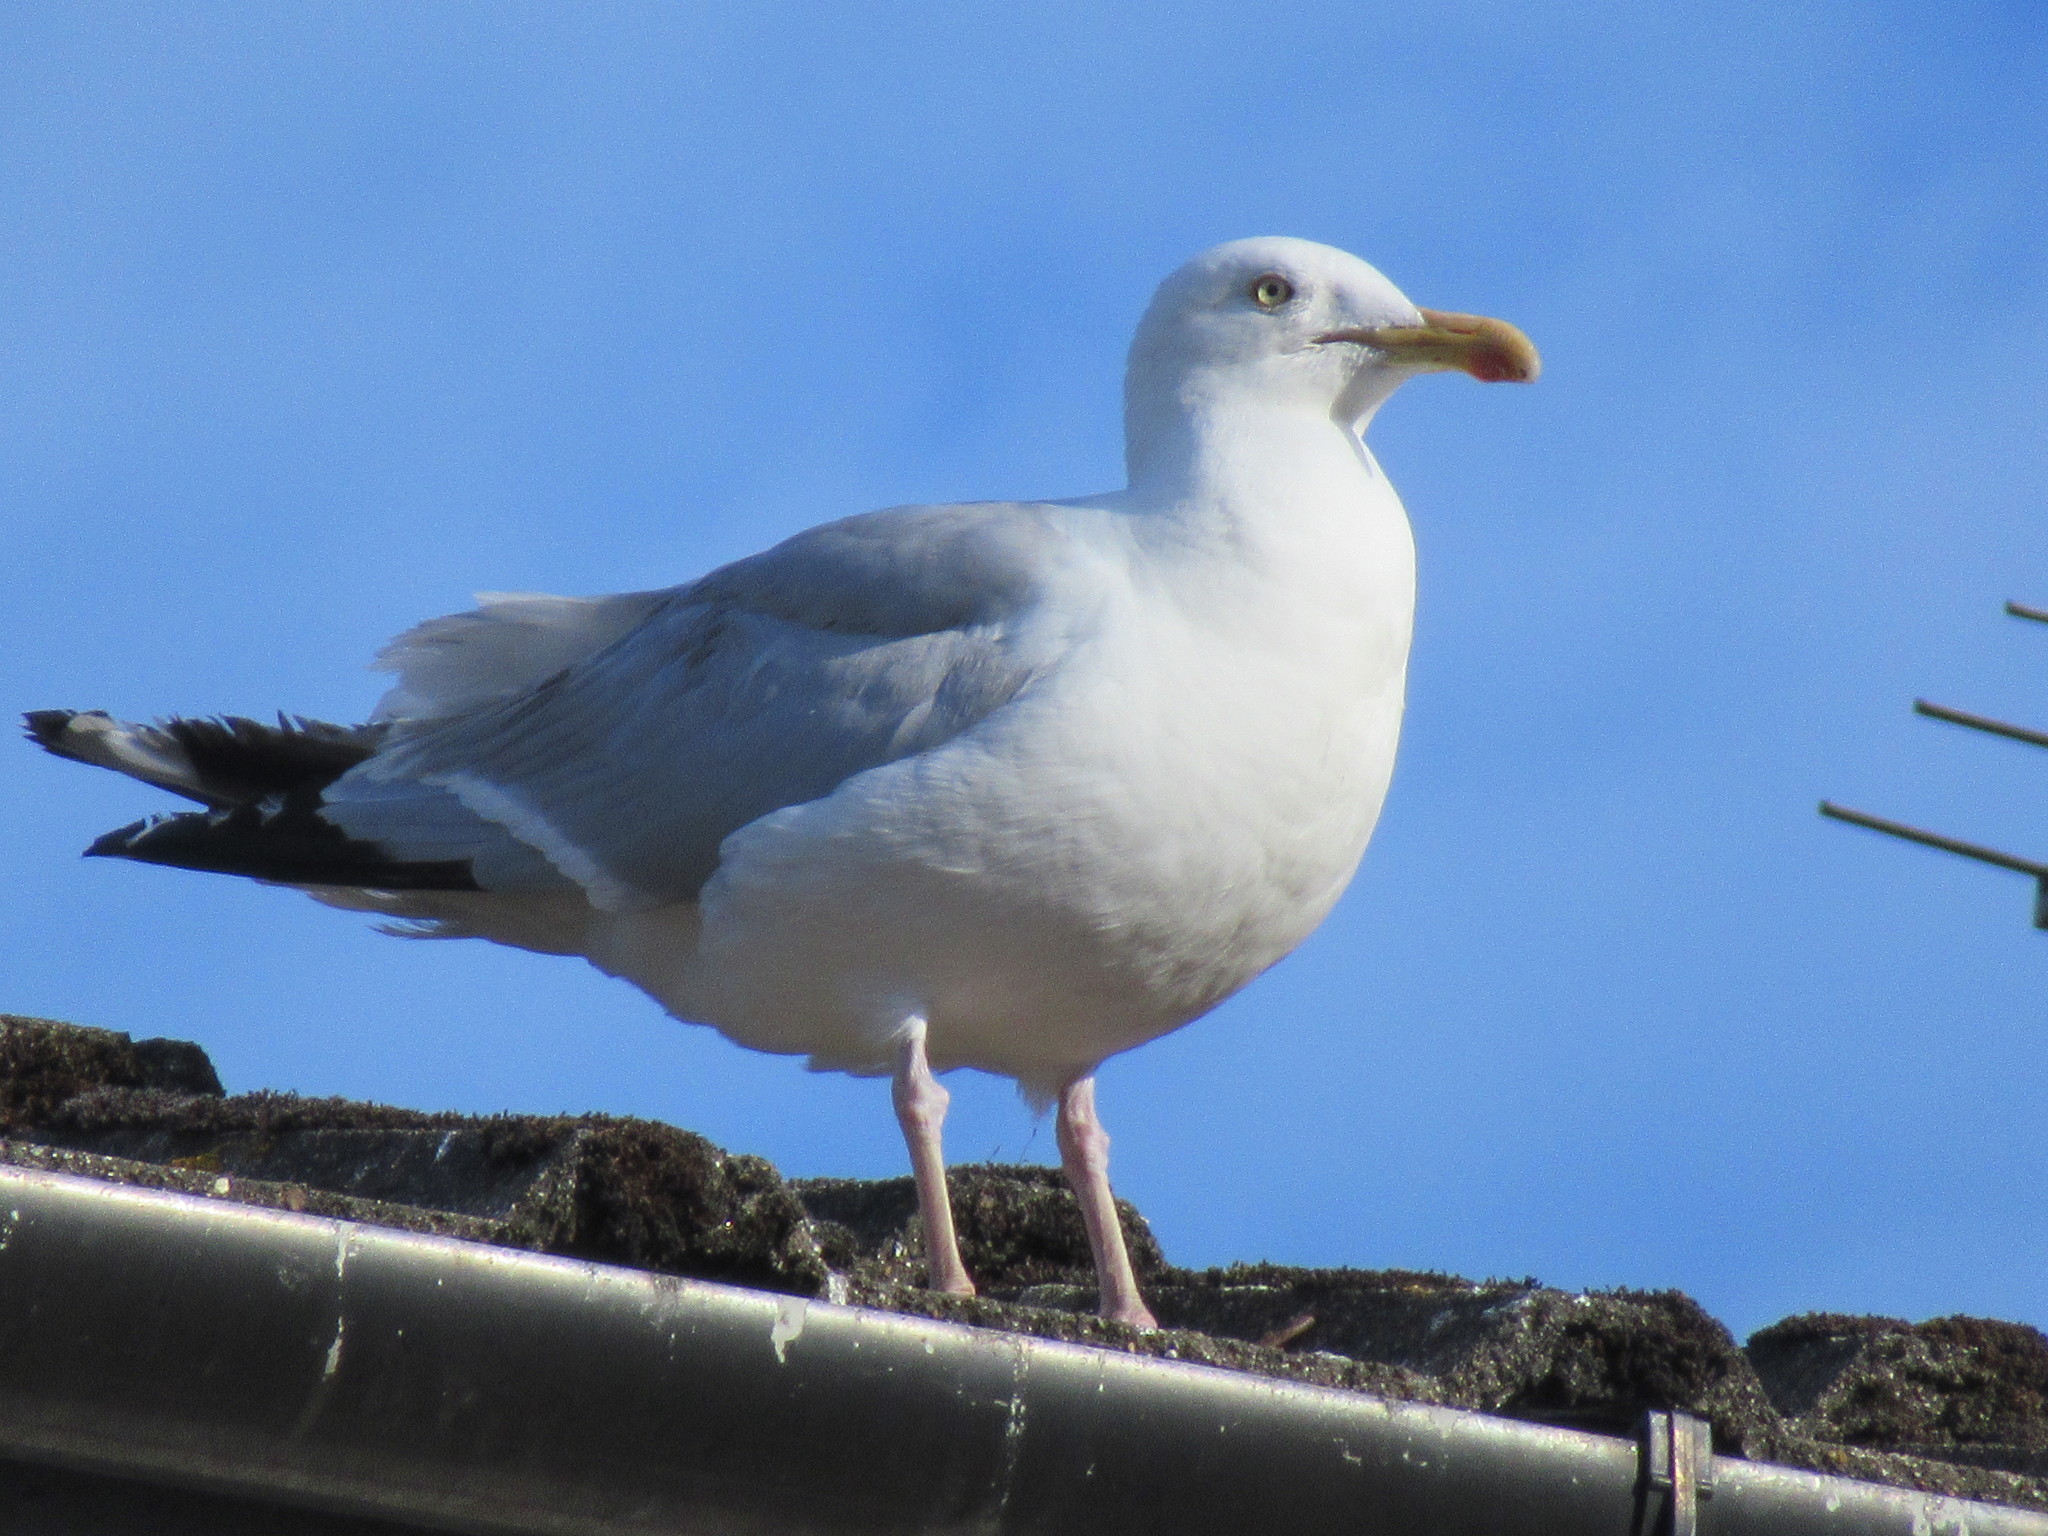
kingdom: Animalia
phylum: Chordata
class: Aves
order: Charadriiformes
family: Laridae
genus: Larus
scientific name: Larus argentatus
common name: Herring gull
